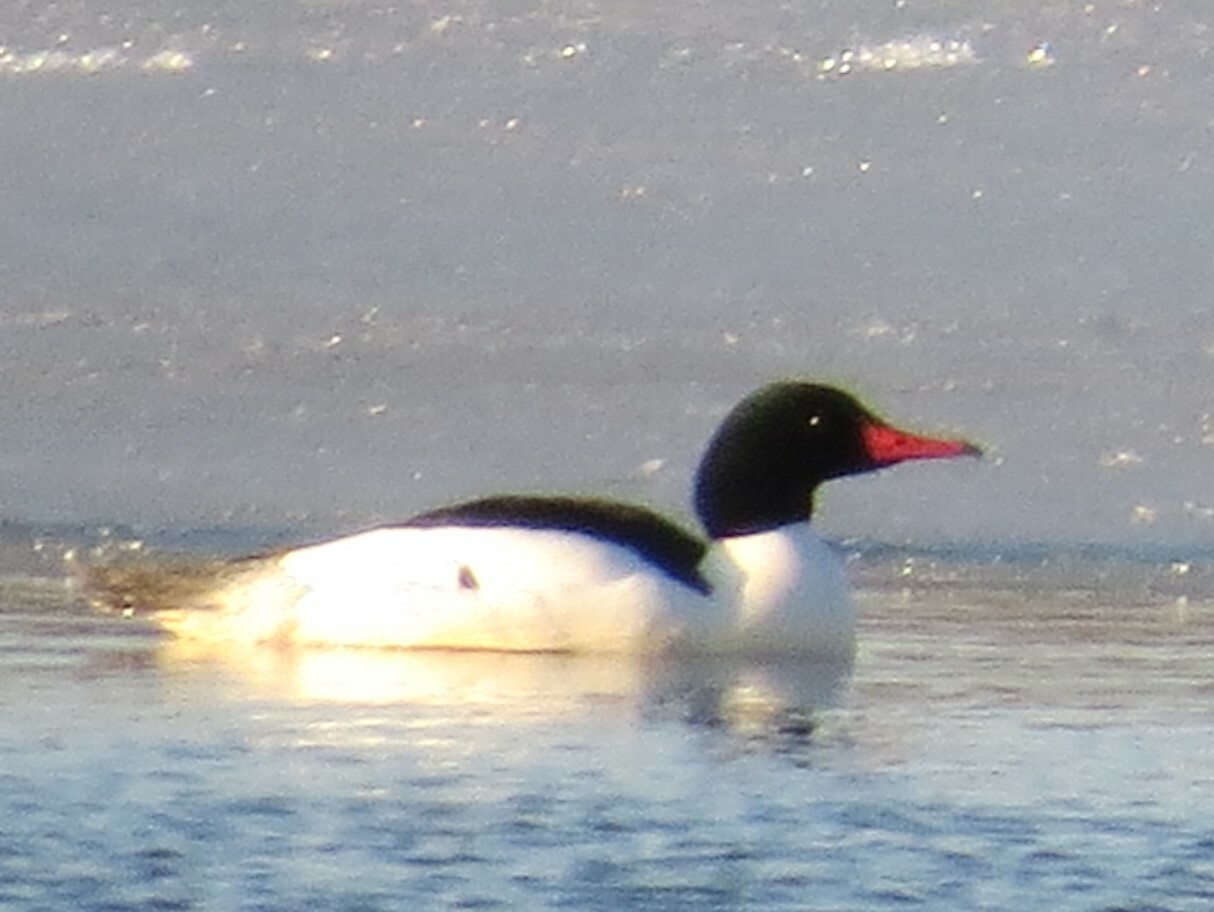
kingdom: Animalia
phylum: Chordata
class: Aves
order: Anseriformes
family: Anatidae
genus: Mergus
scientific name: Mergus merganser
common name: Common merganser
